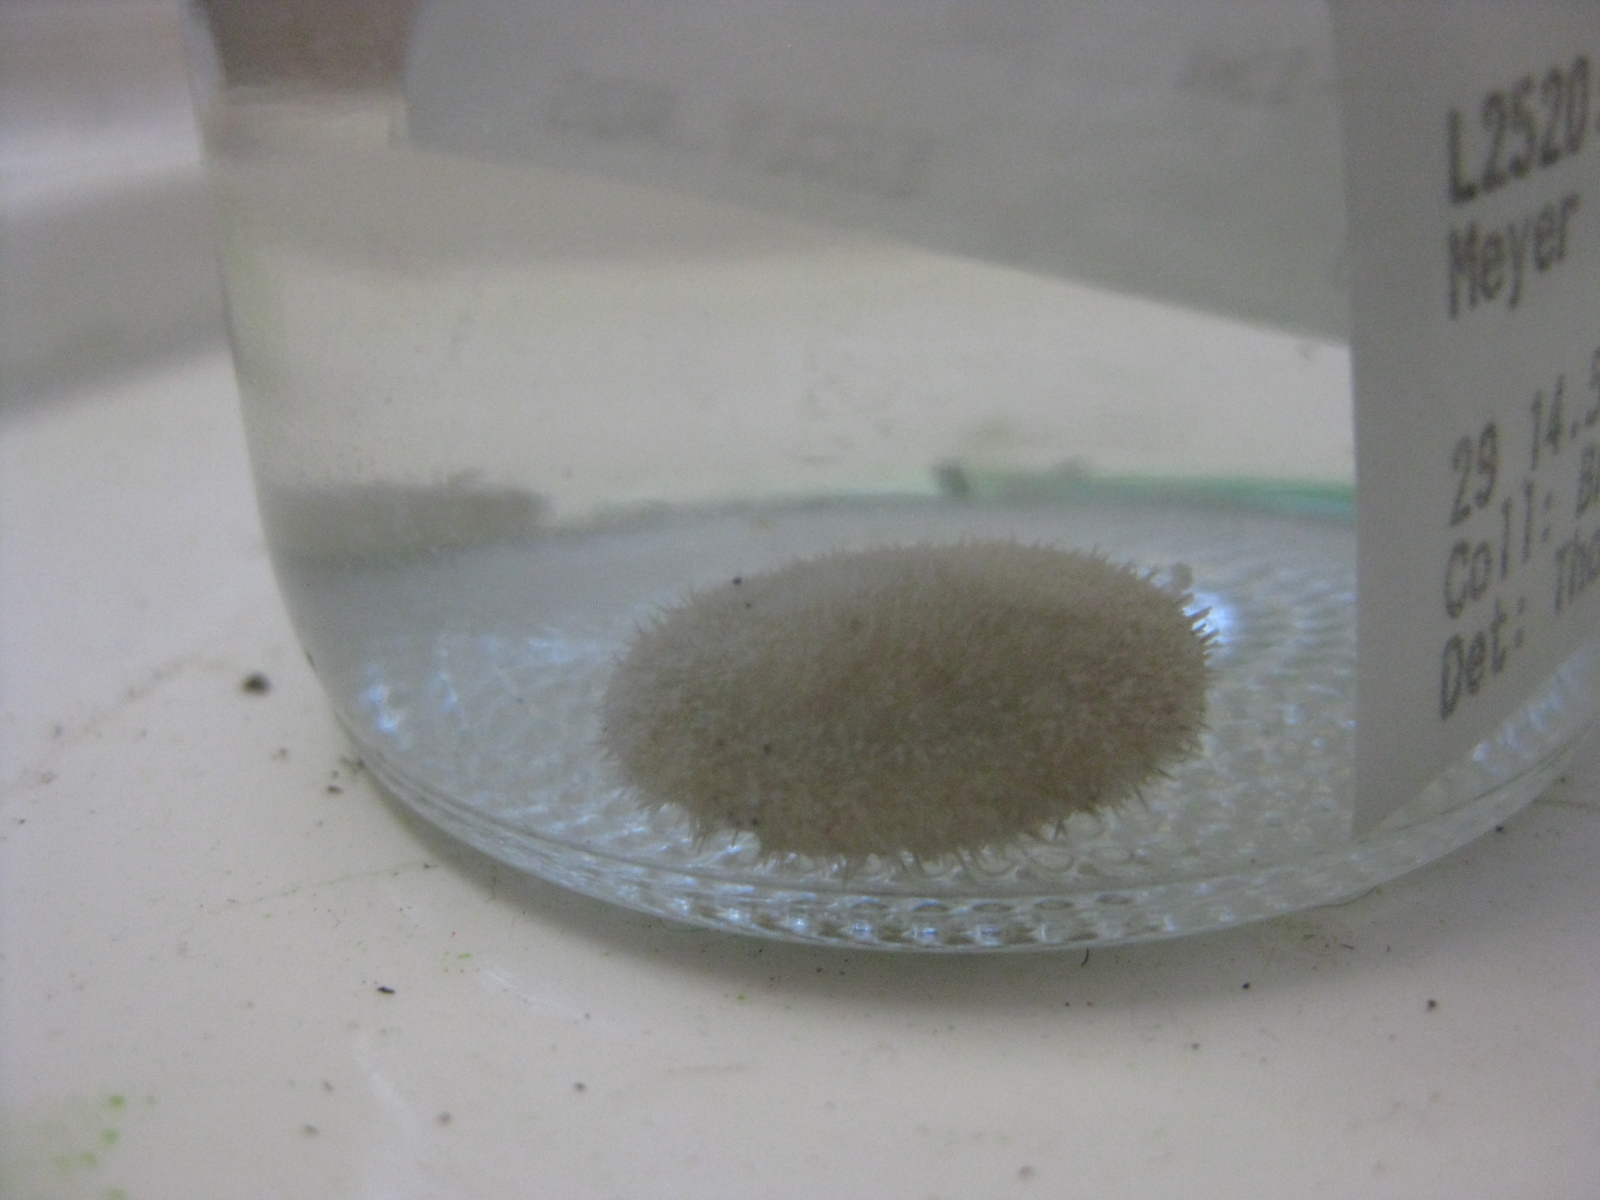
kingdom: Animalia
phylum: Echinodermata
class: Echinoidea
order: Clypeasteroida
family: Clypeasteridae
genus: Clypeaster
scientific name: Clypeaster australasiae
